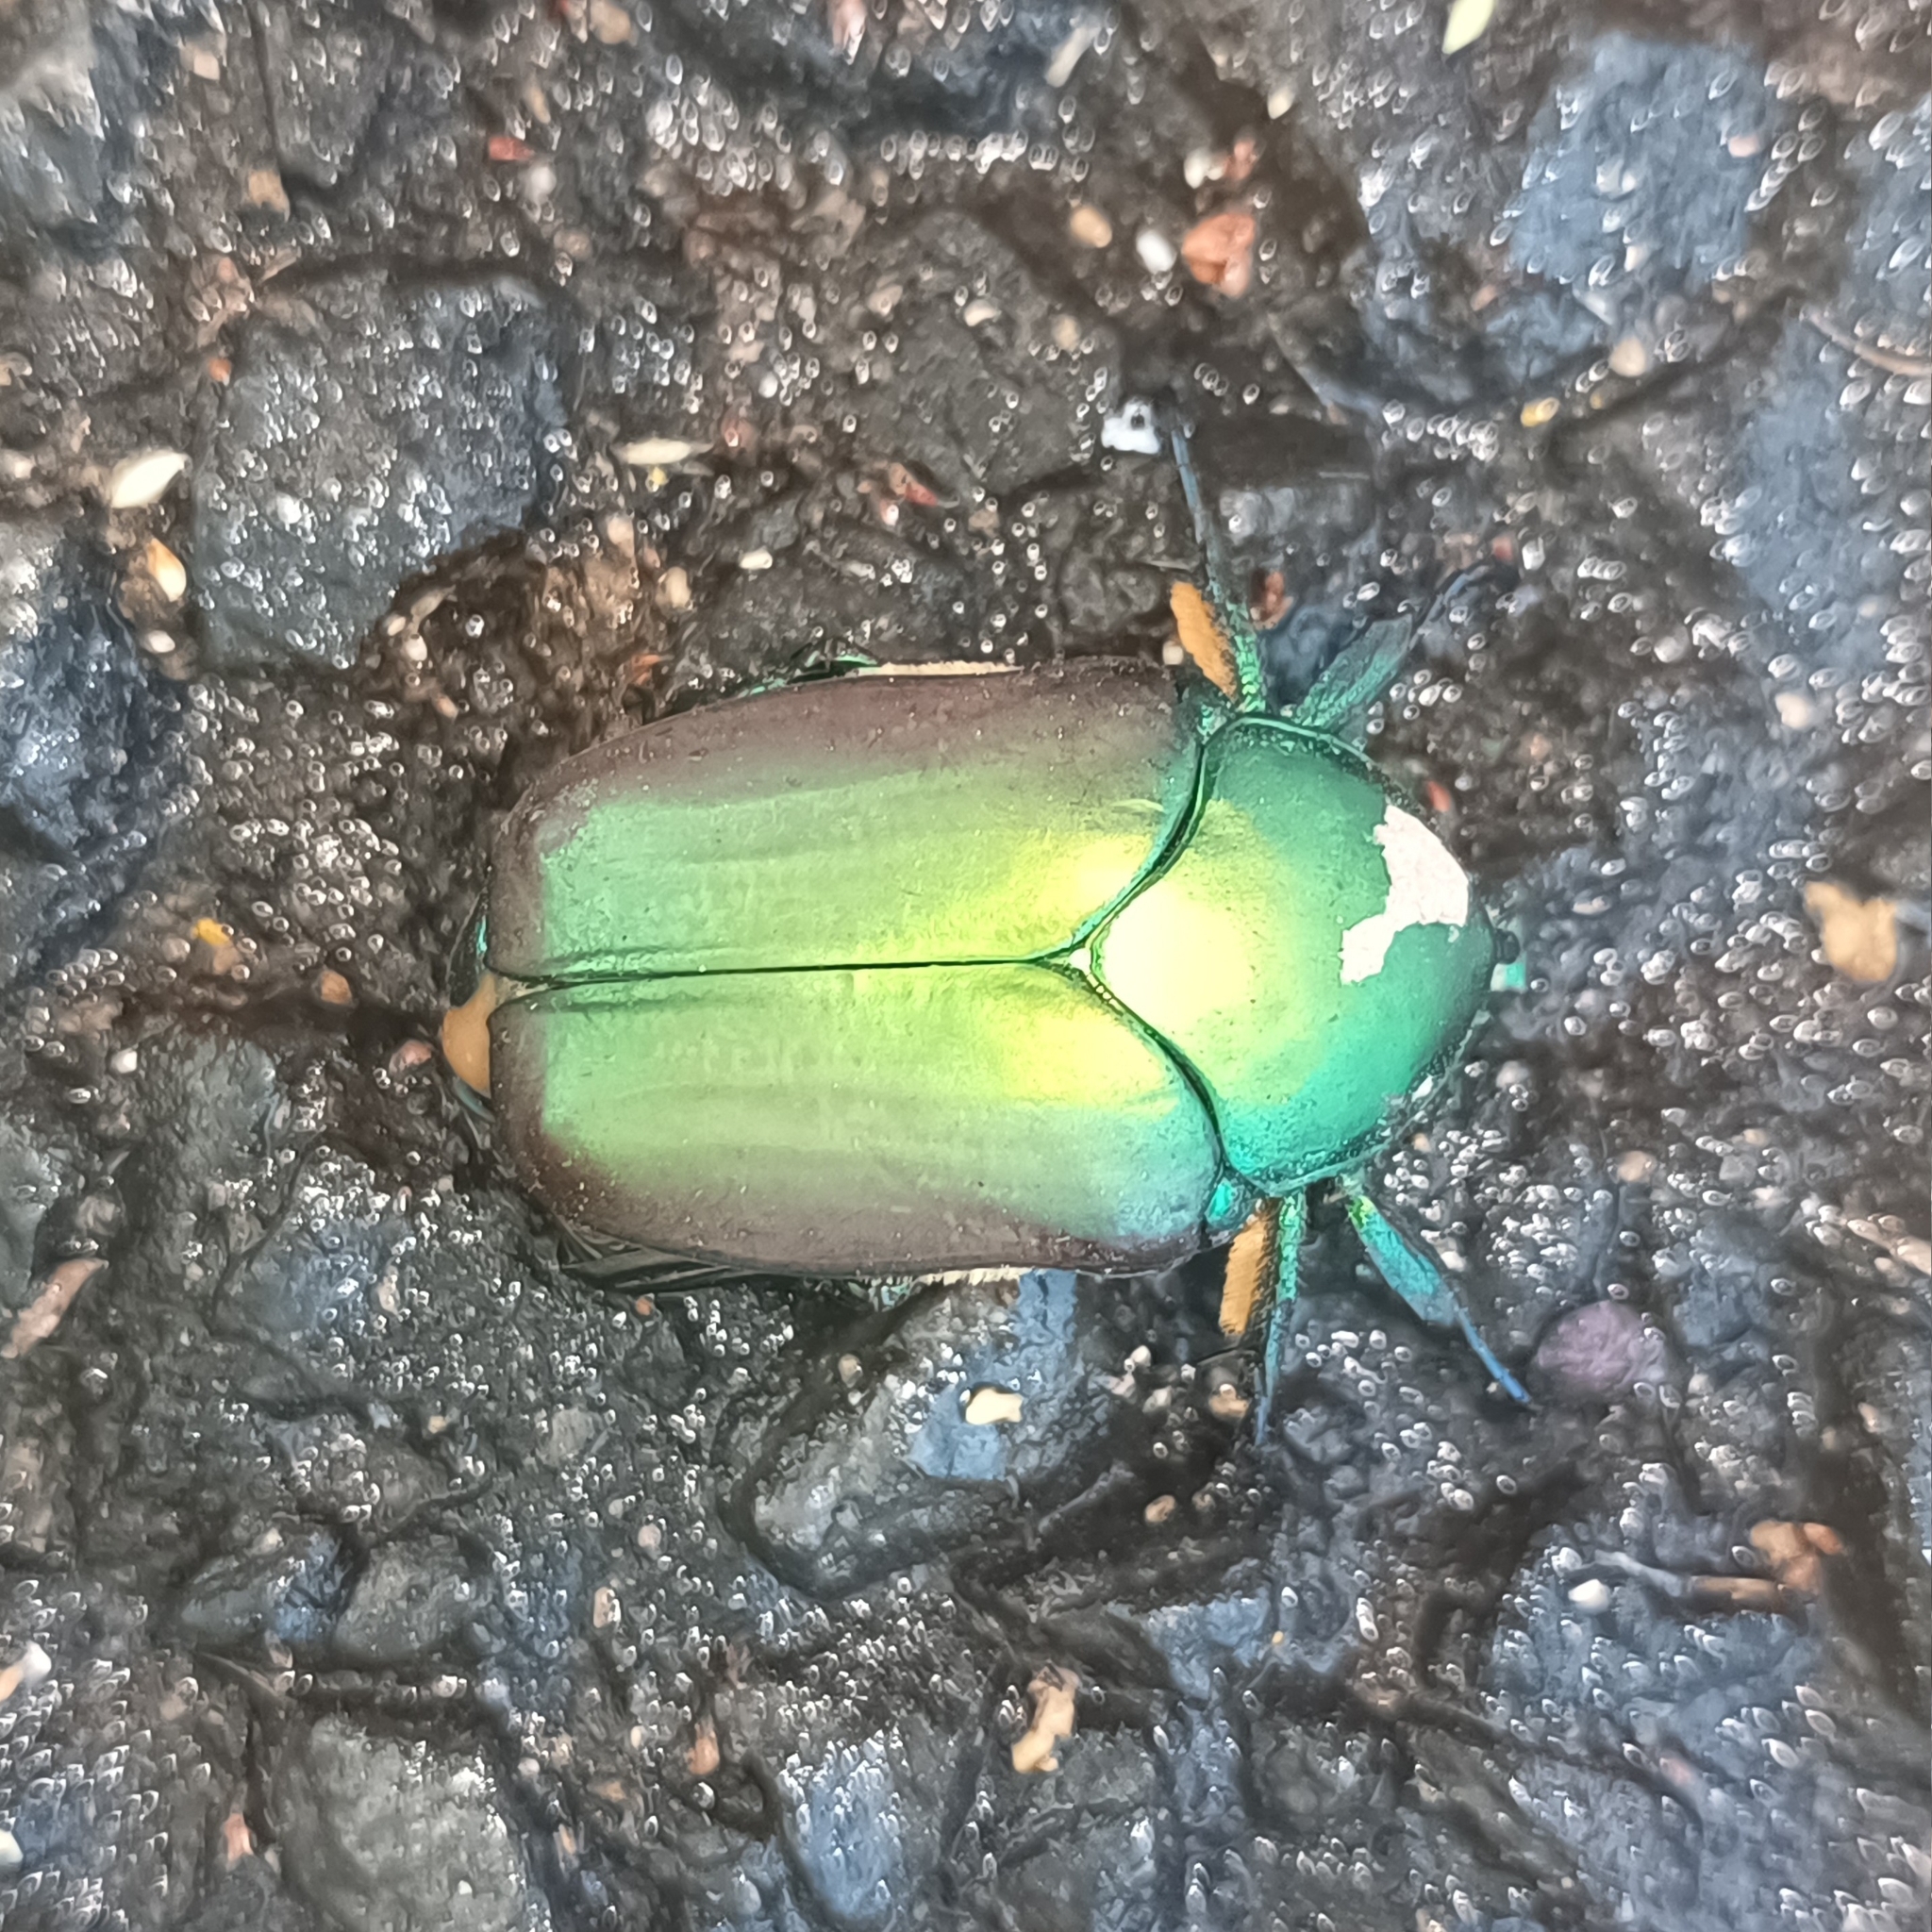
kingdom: Animalia
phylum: Arthropoda
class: Insecta
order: Coleoptera
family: Scarabaeidae
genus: Cotinis
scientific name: Cotinis laticornis
